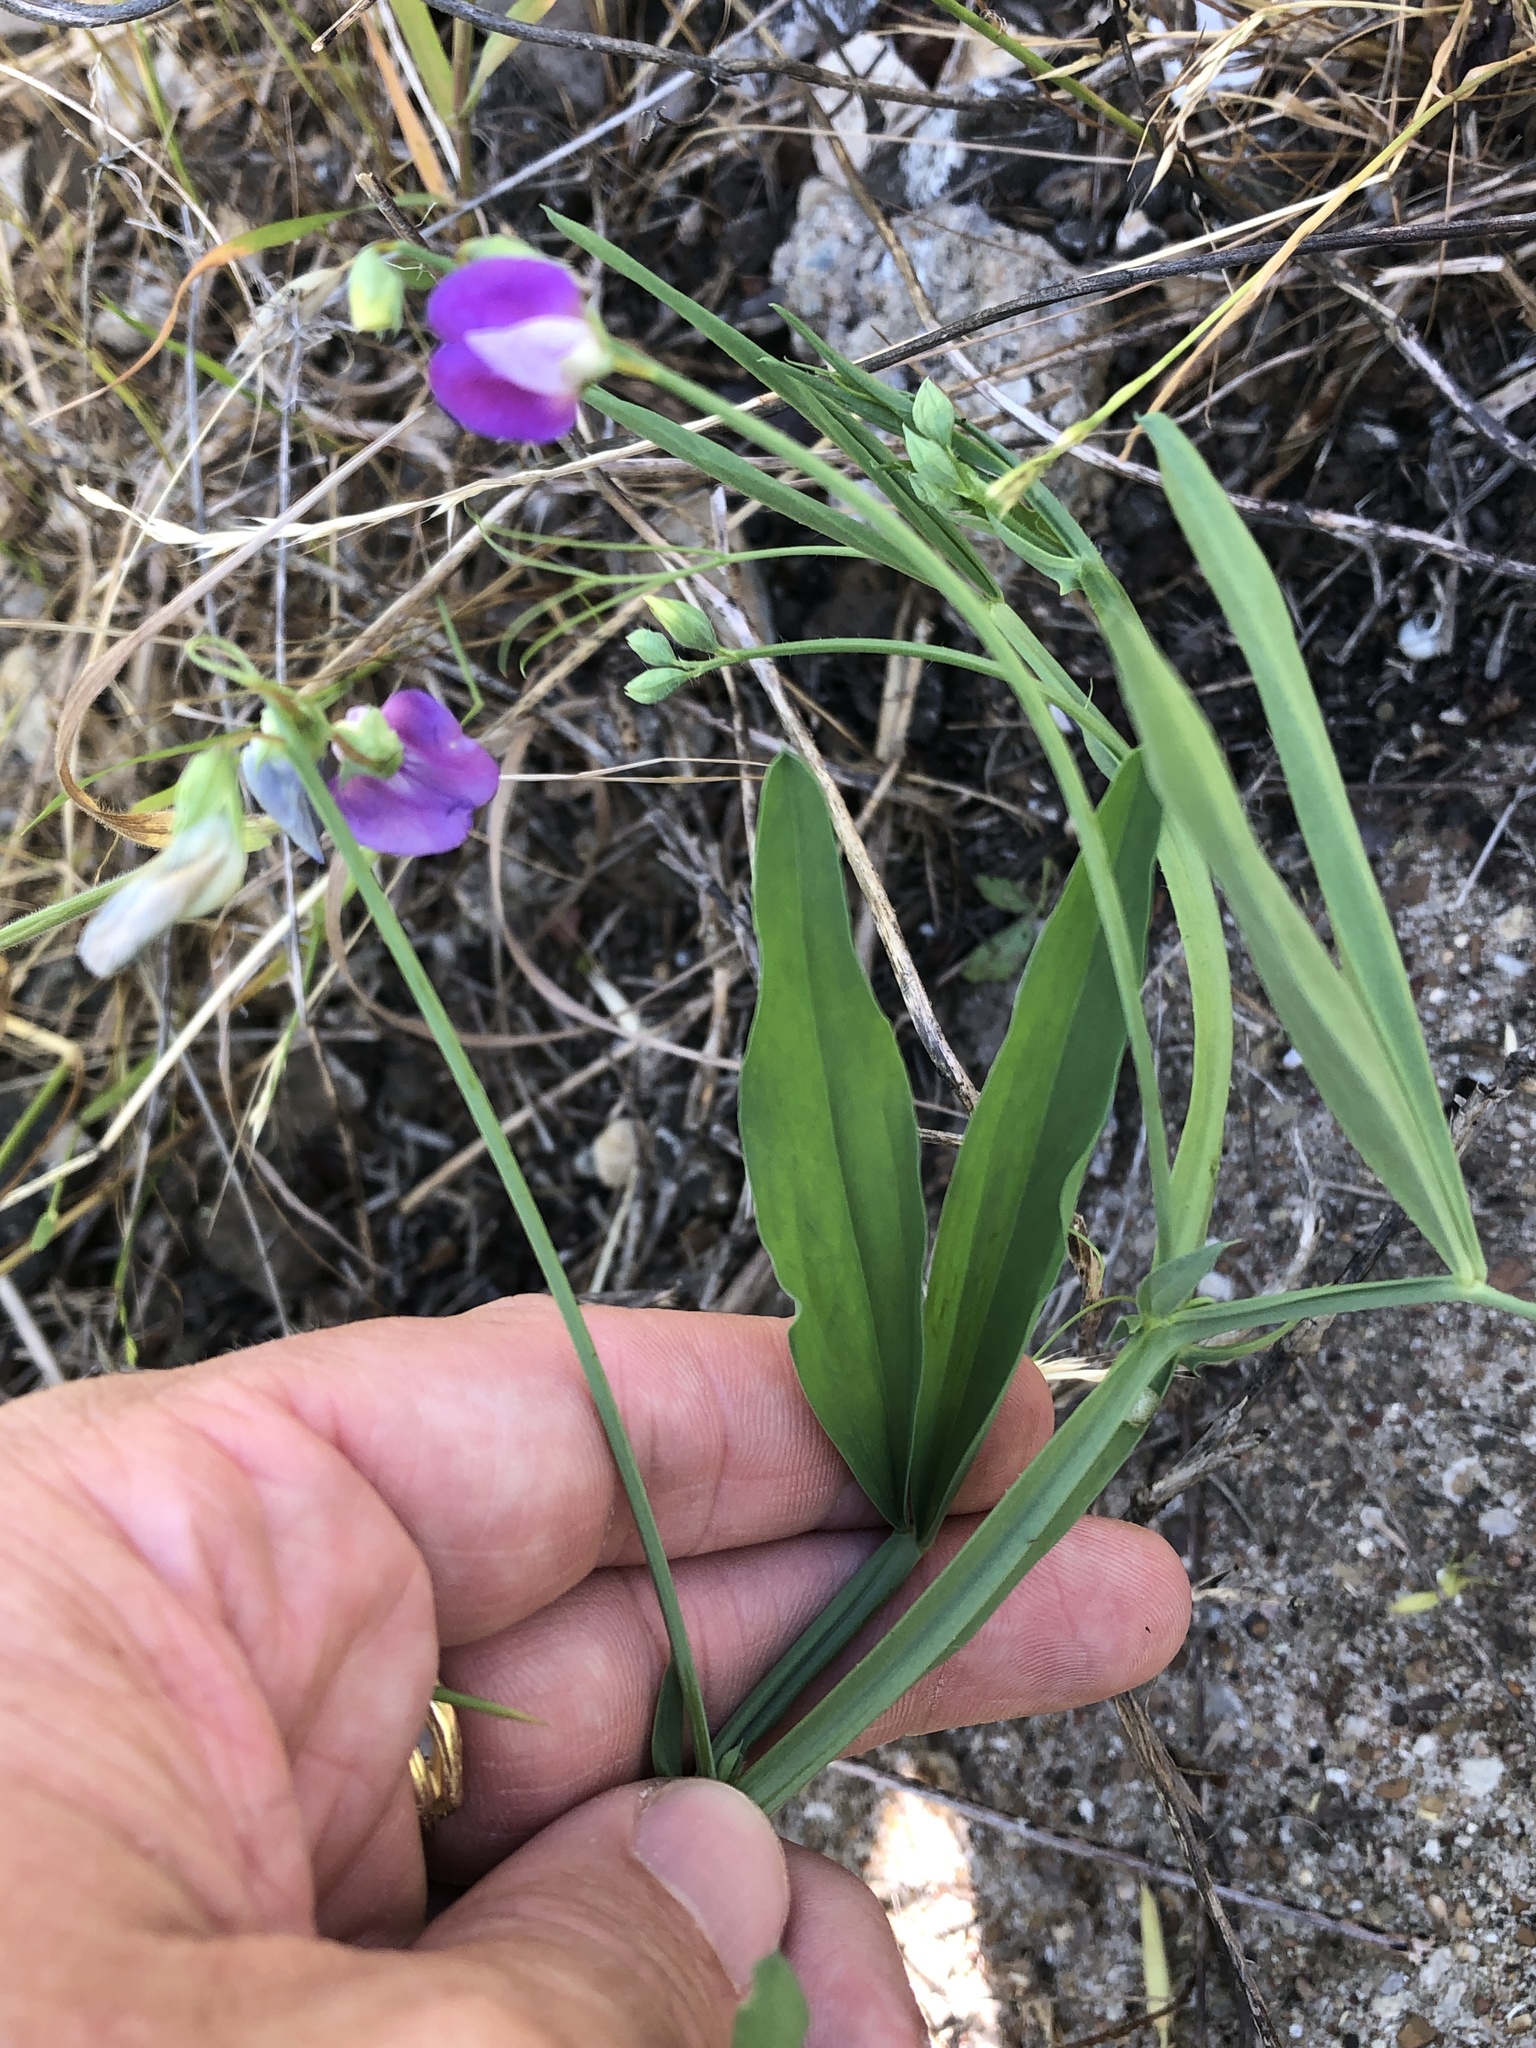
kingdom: Plantae
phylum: Tracheophyta
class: Magnoliopsida
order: Fabales
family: Fabaceae
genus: Lathyrus
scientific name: Lathyrus hirsutus
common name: Hairy vetchling
